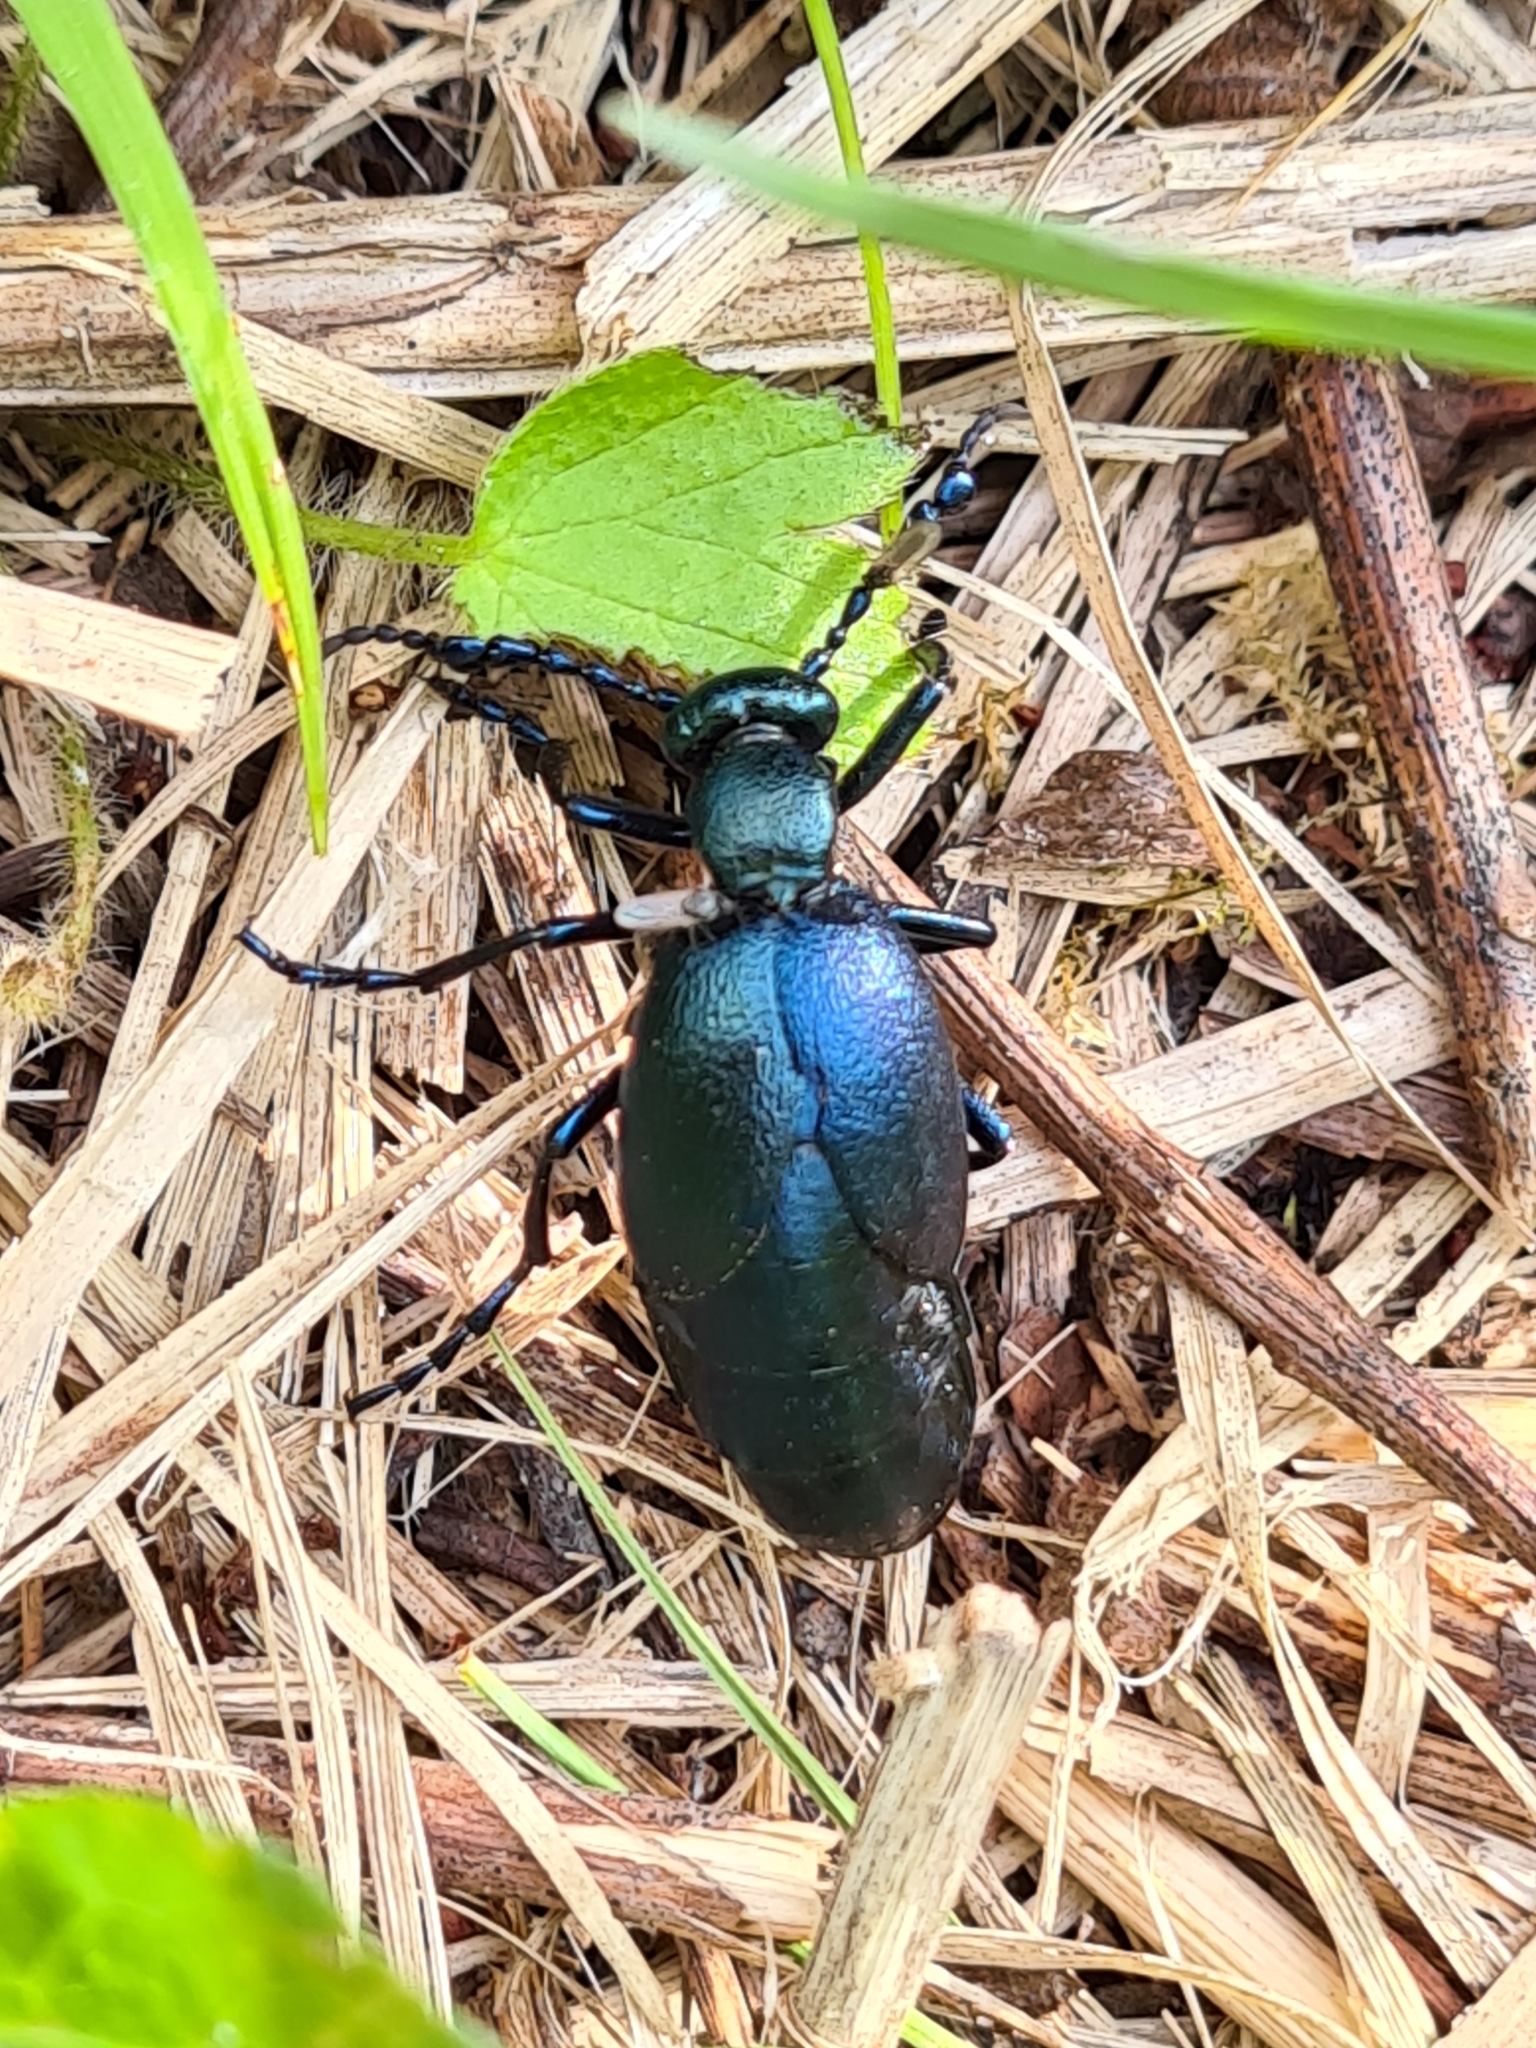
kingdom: Animalia
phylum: Arthropoda
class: Insecta
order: Coleoptera
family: Meloidae
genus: Meloe
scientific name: Meloe violaceus
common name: Violet oil-beetle
